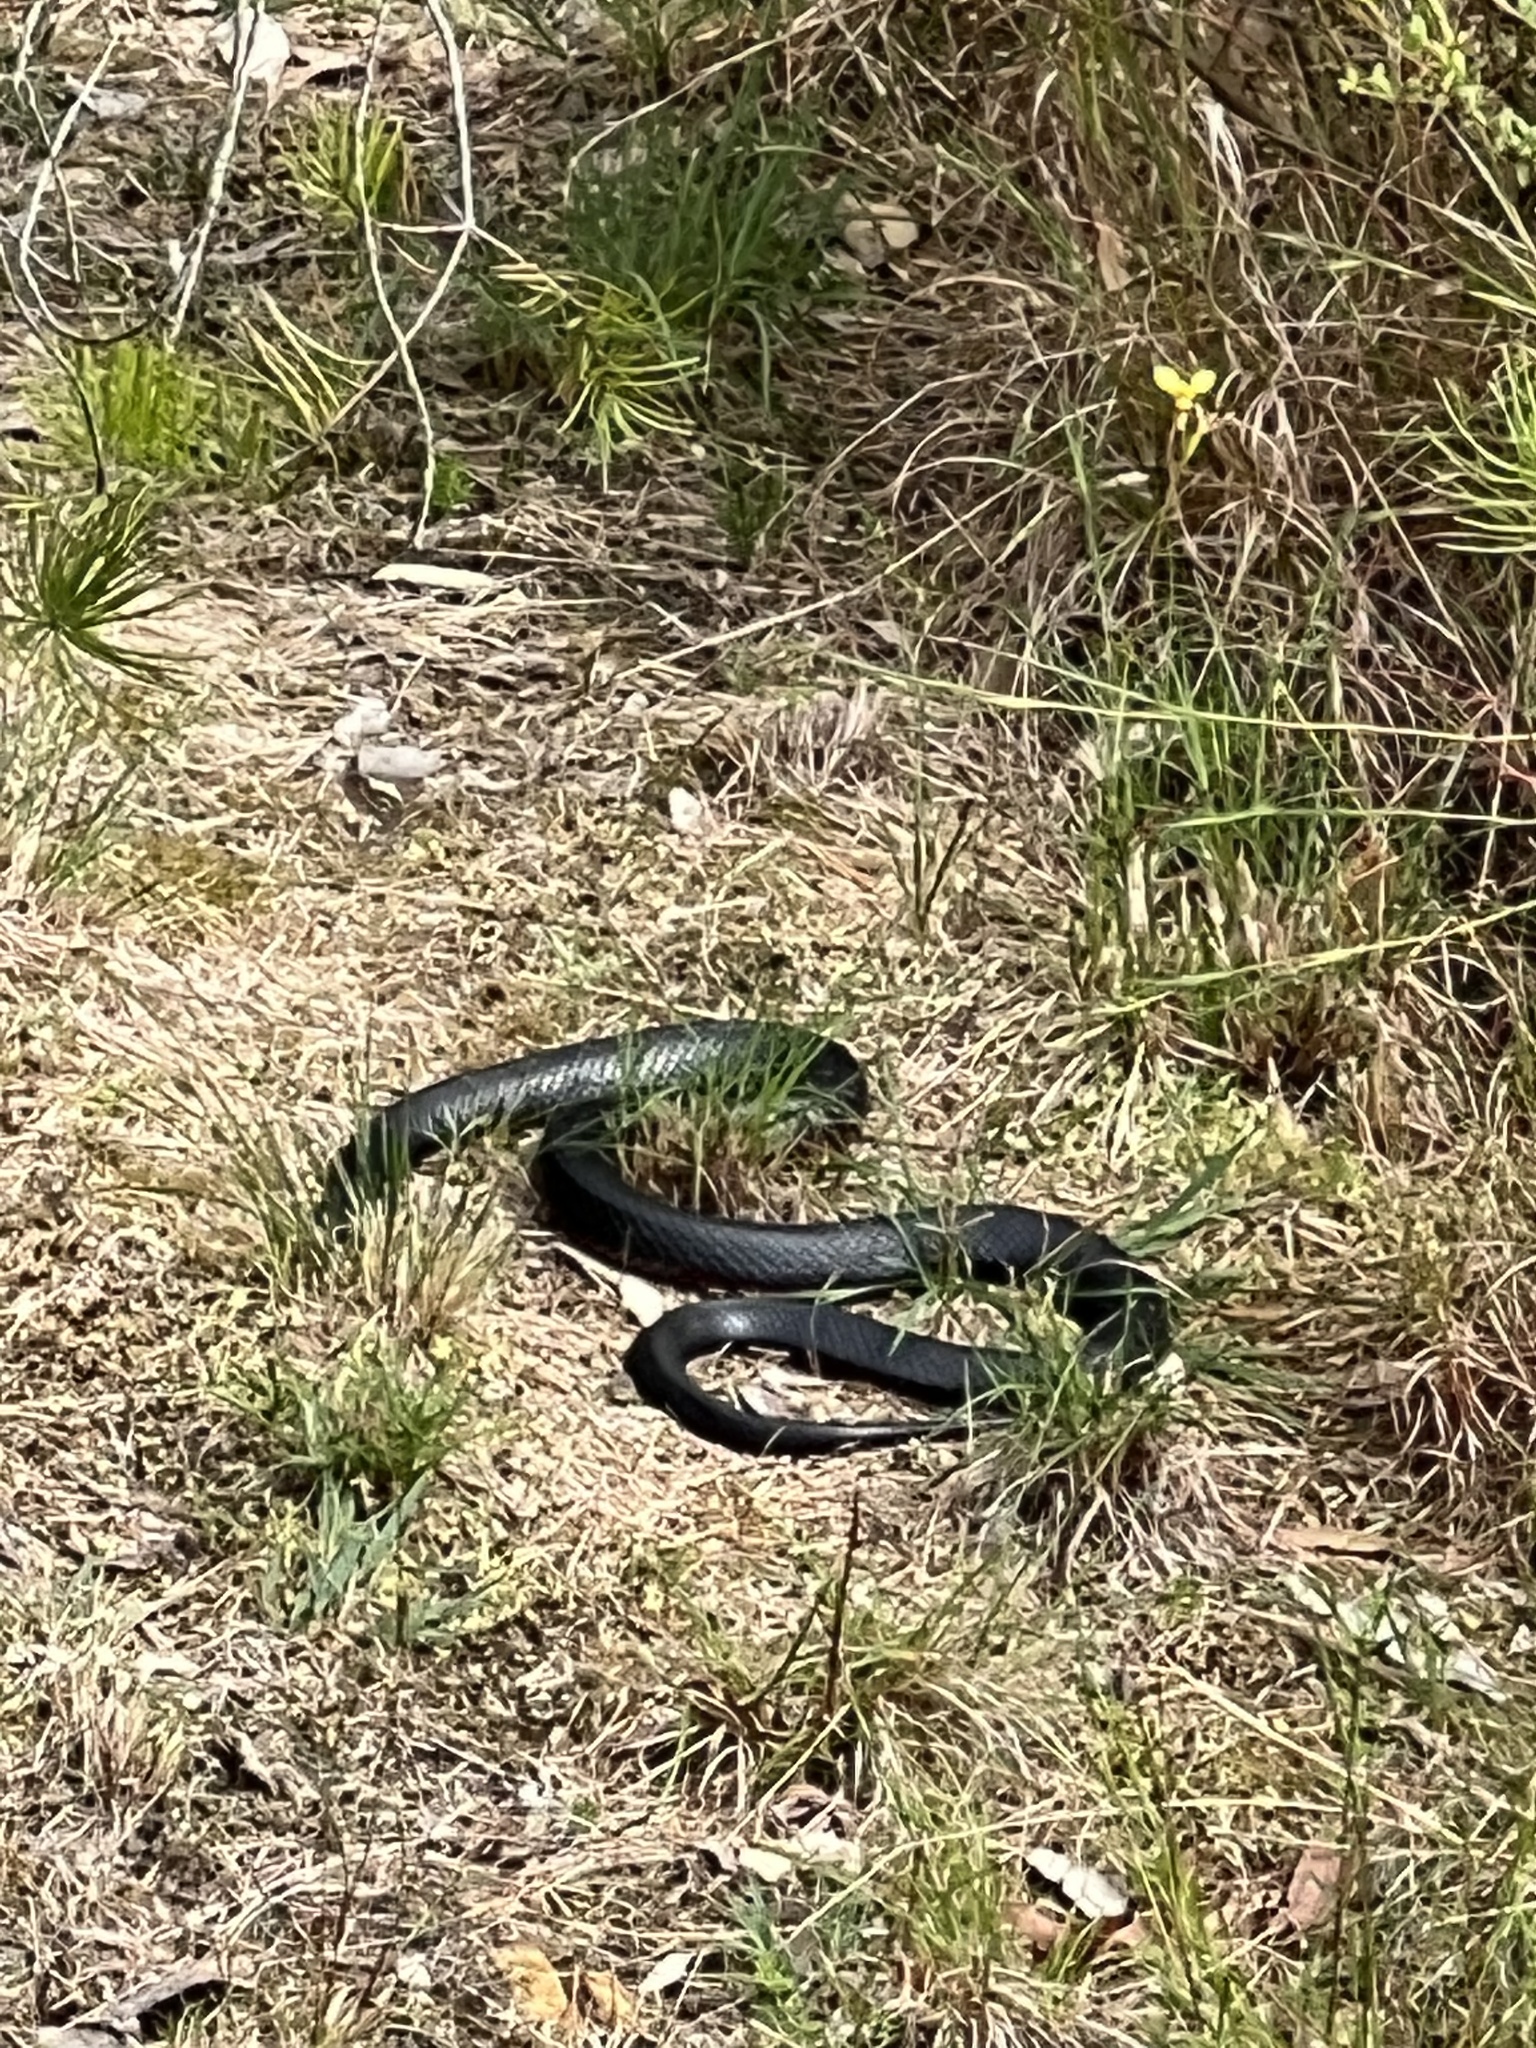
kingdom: Animalia
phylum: Chordata
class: Squamata
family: Elapidae
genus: Pseudechis
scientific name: Pseudechis porphyriacus
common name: Australian black snake
